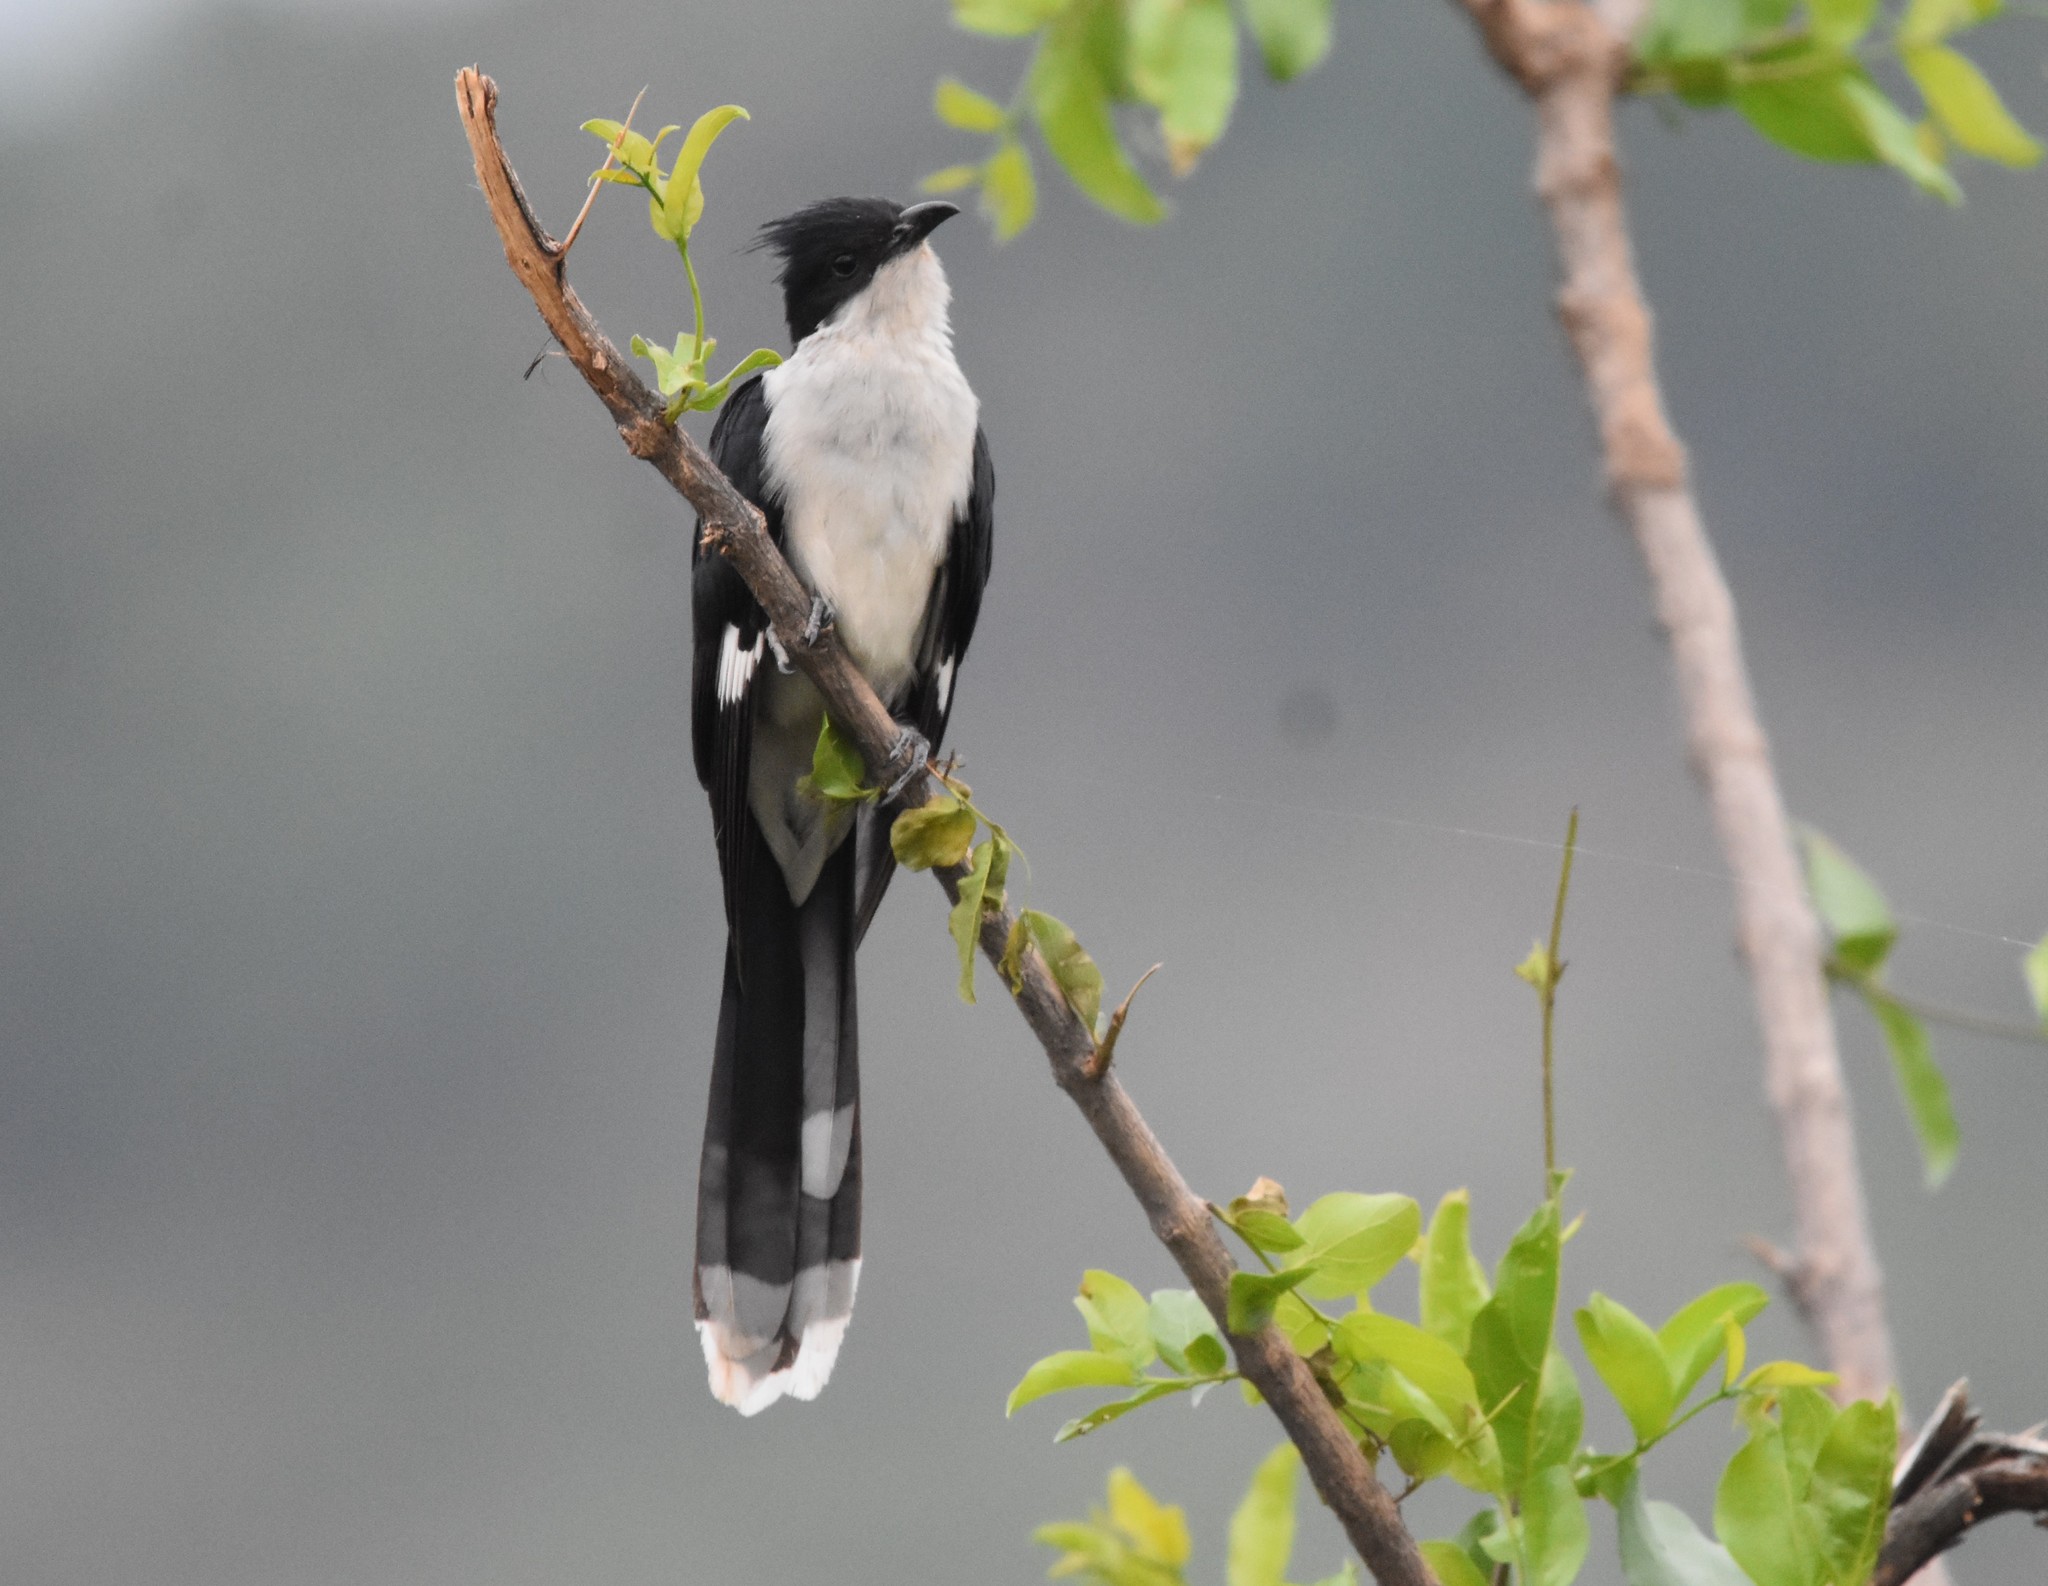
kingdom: Animalia
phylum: Chordata
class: Aves
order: Cuculiformes
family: Cuculidae
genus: Clamator
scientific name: Clamator jacobinus
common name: Jacobin cuckoo
